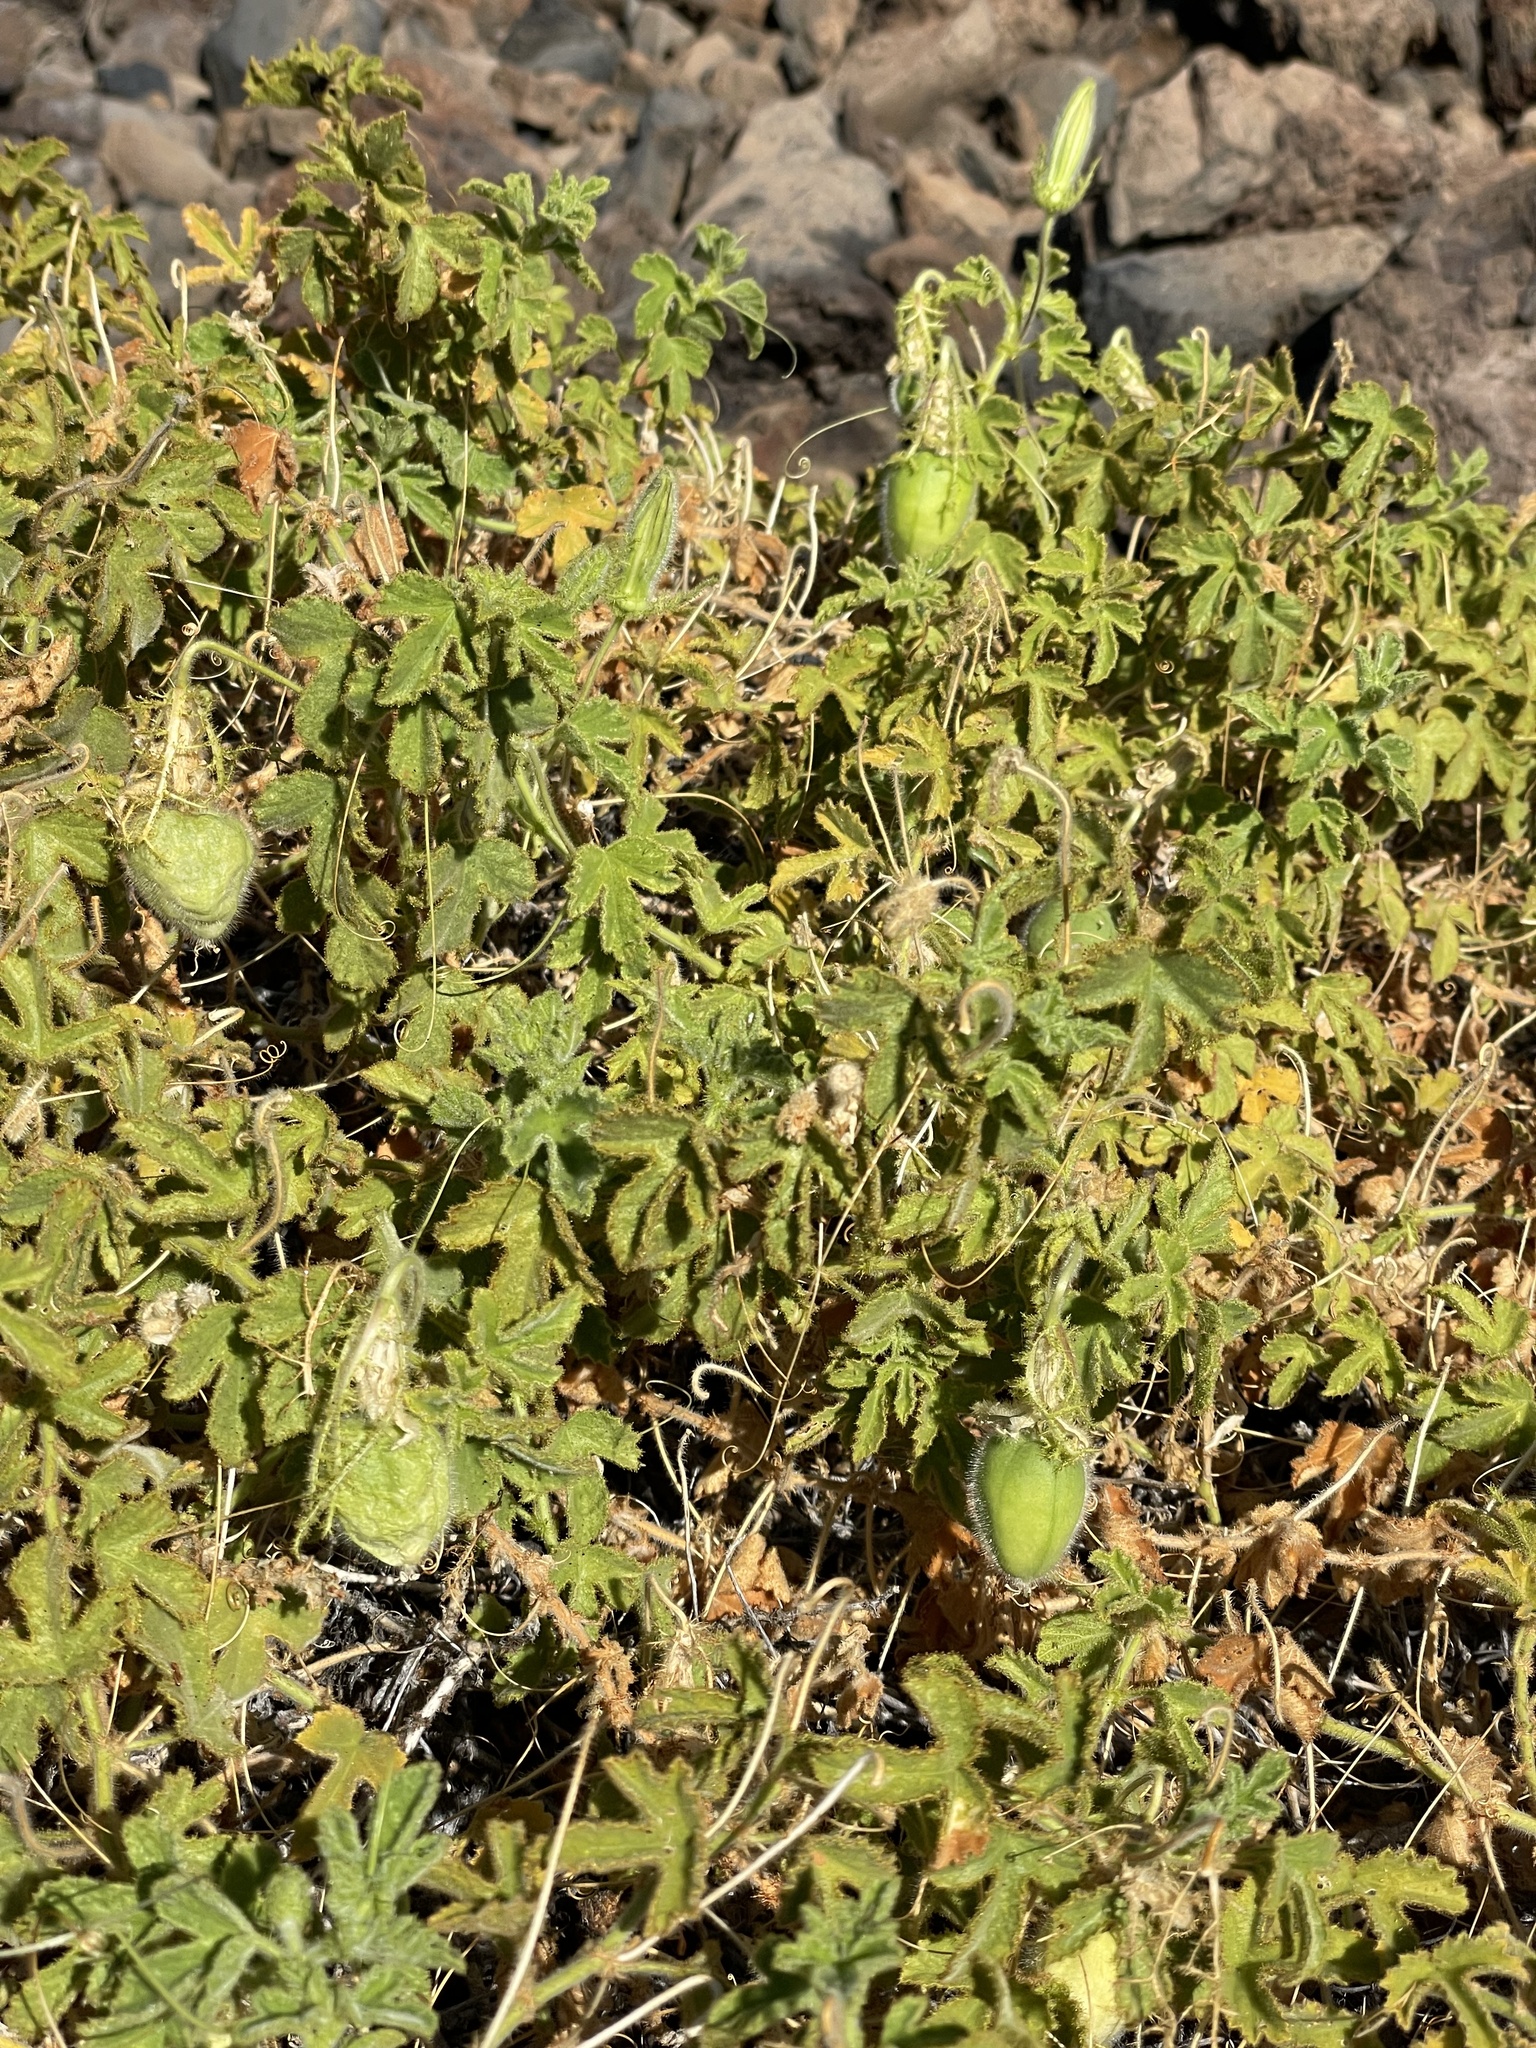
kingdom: Plantae
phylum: Tracheophyta
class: Magnoliopsida
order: Malpighiales
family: Passifloraceae
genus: Passiflora
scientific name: Passiflora palmeri
